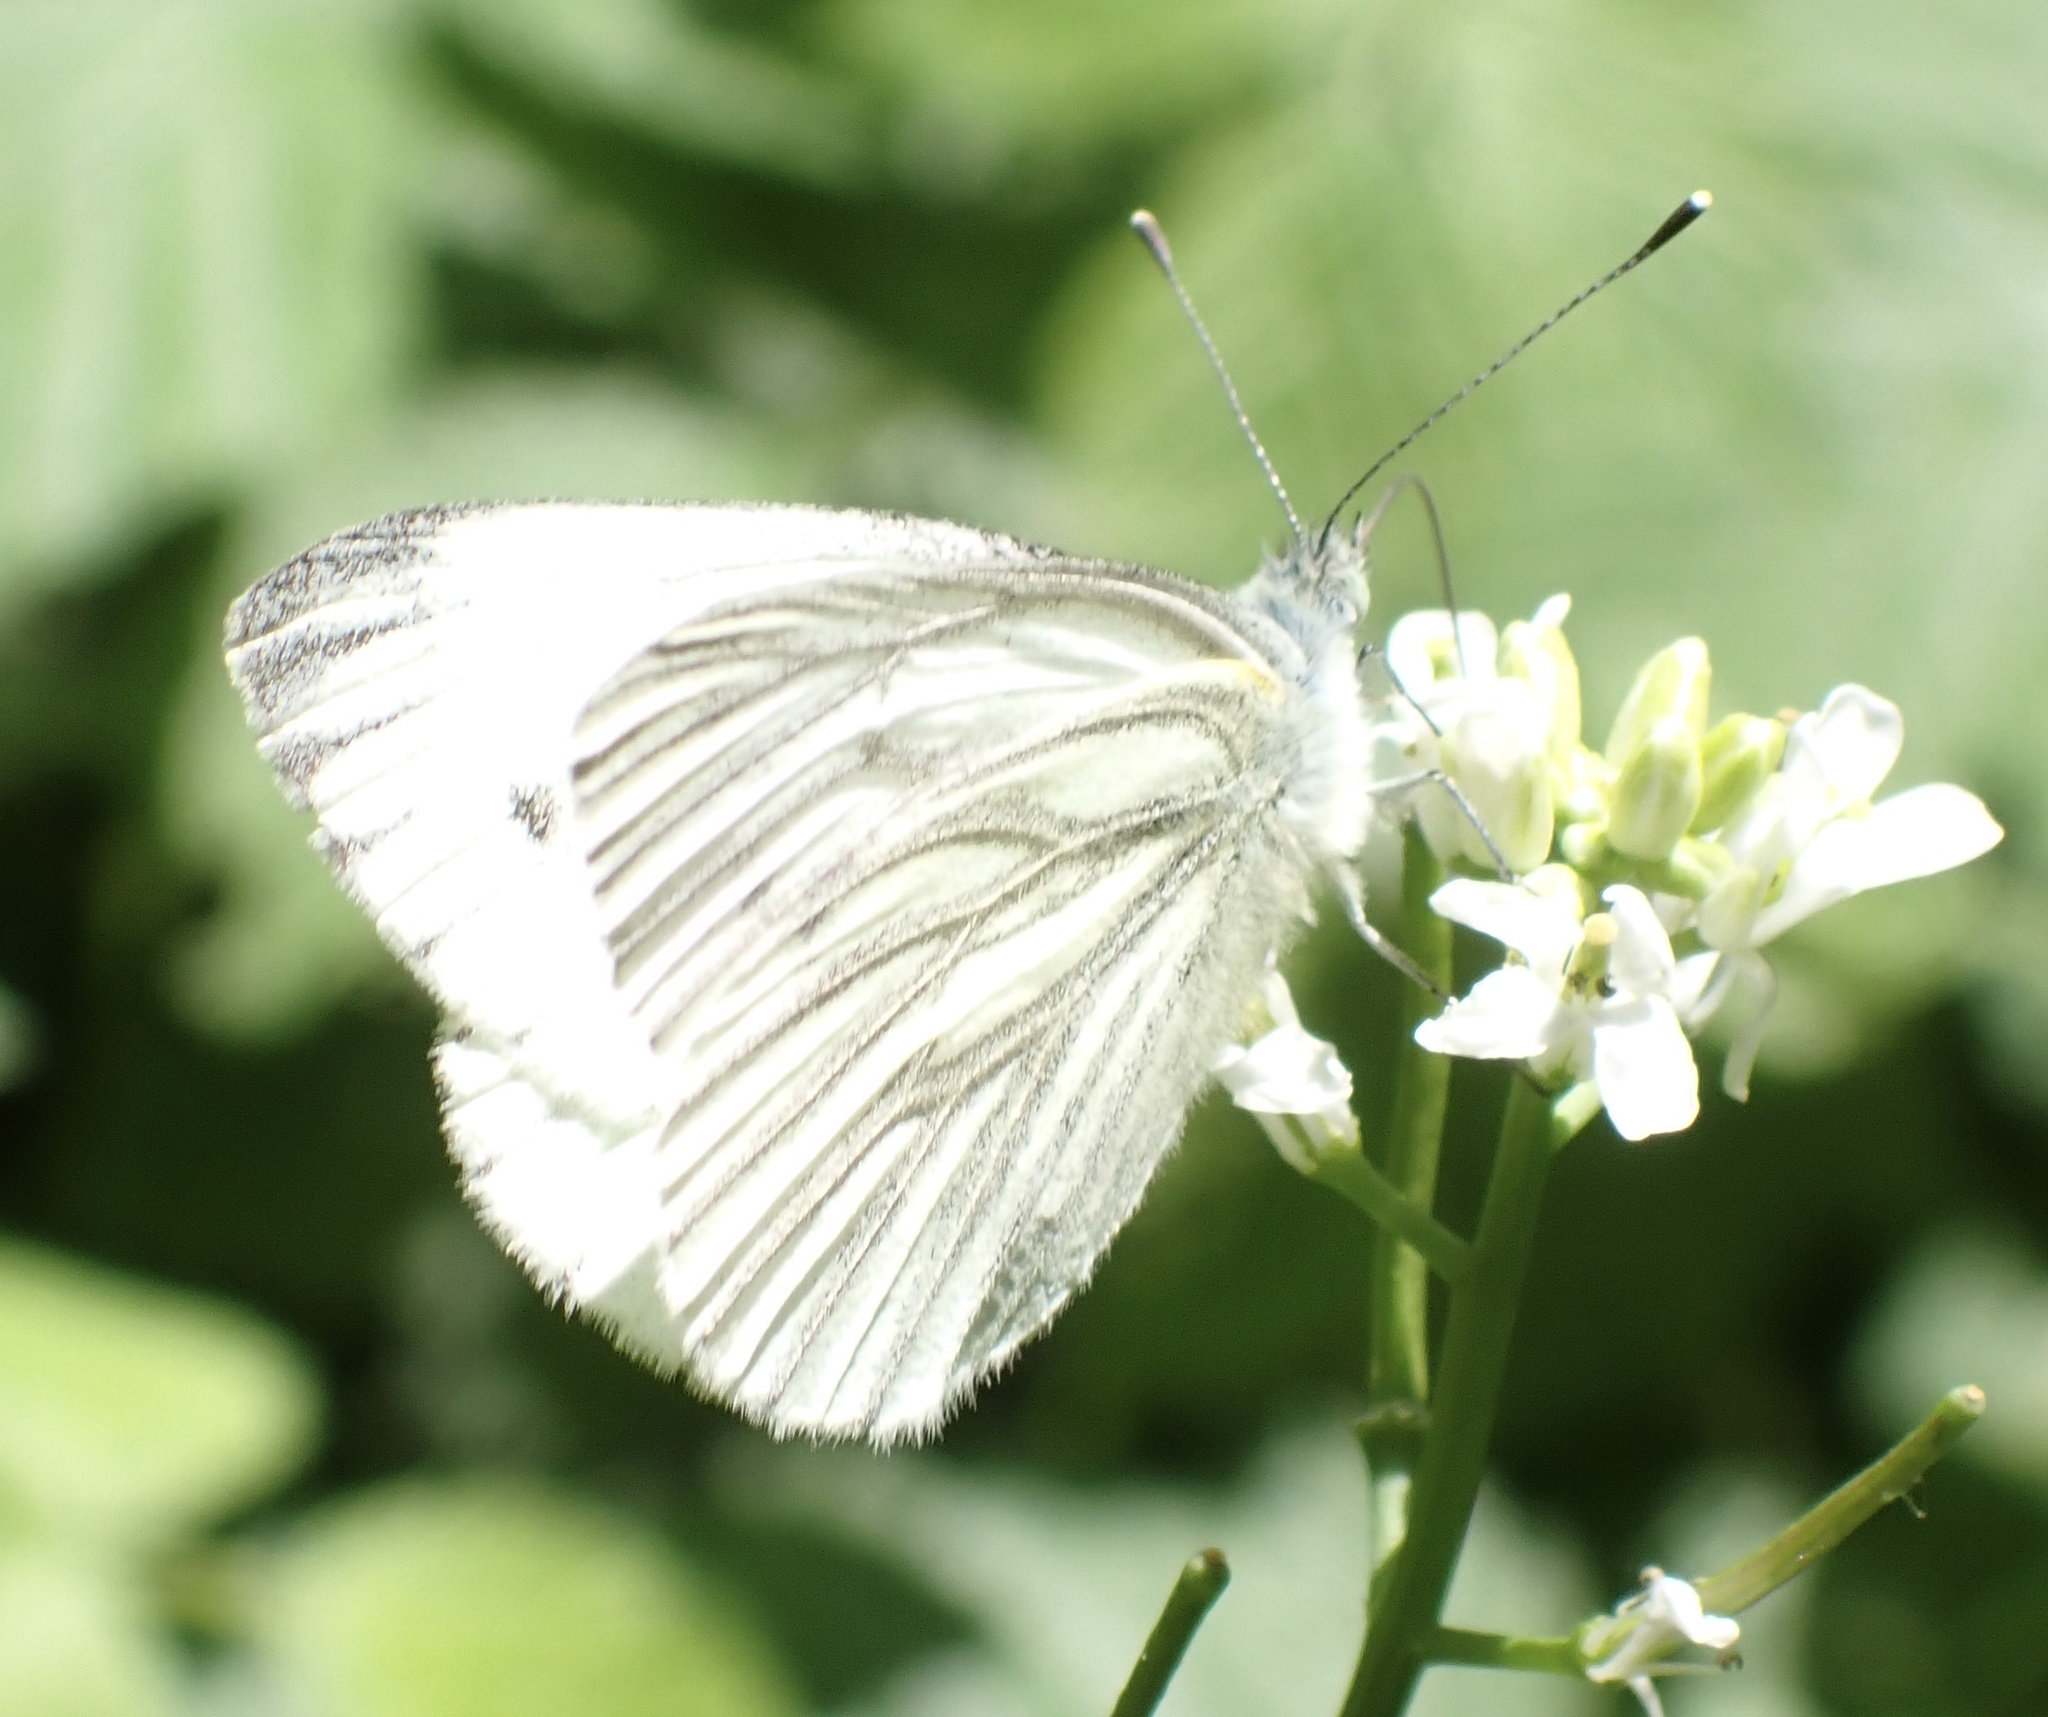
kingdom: Animalia
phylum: Arthropoda
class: Insecta
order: Lepidoptera
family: Pieridae
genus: Pieris
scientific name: Pieris napi
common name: Green-veined white
